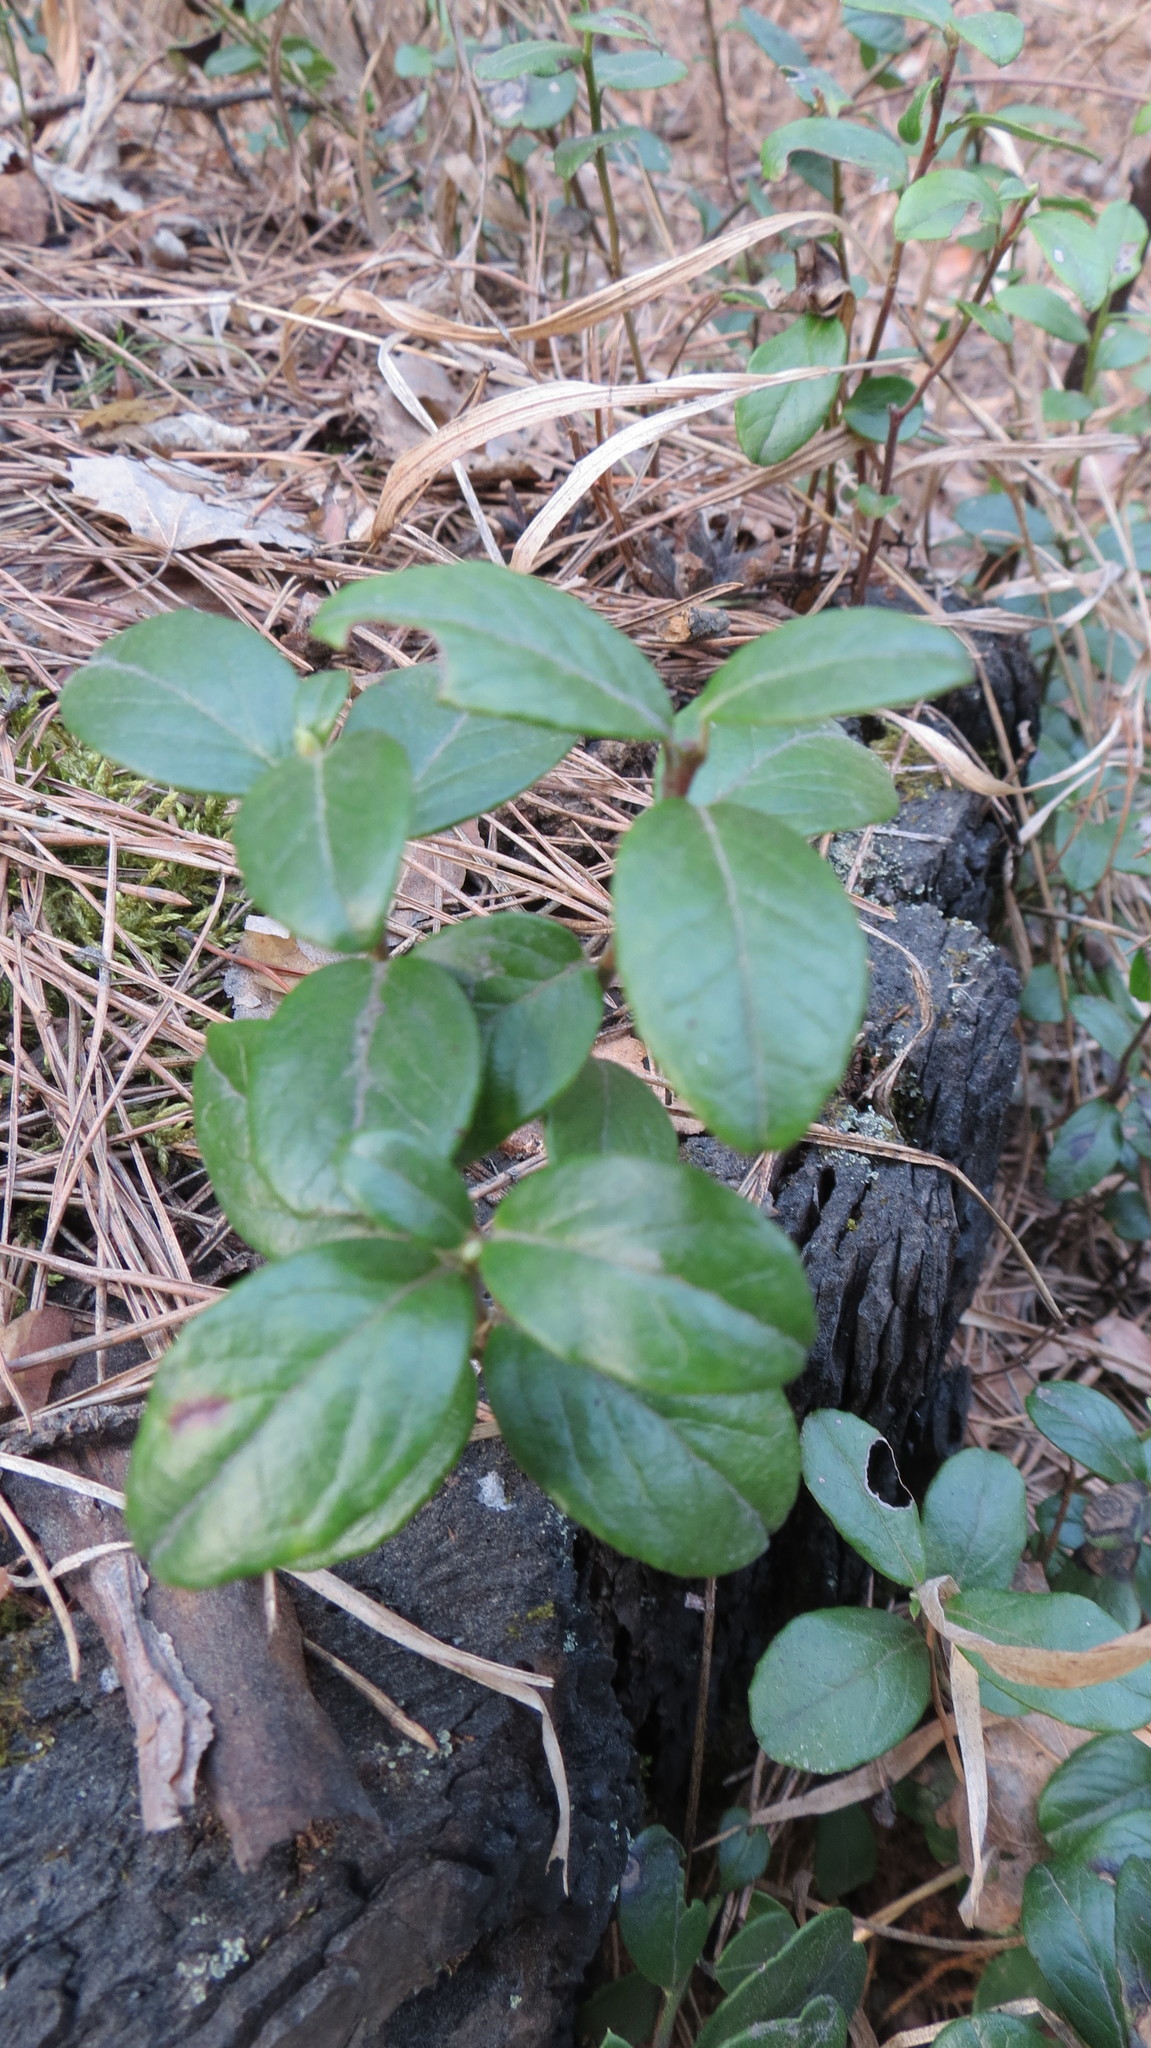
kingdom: Plantae
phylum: Tracheophyta
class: Magnoliopsida
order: Ericales
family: Ericaceae
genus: Vaccinium
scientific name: Vaccinium vitis-idaea
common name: Cowberry
